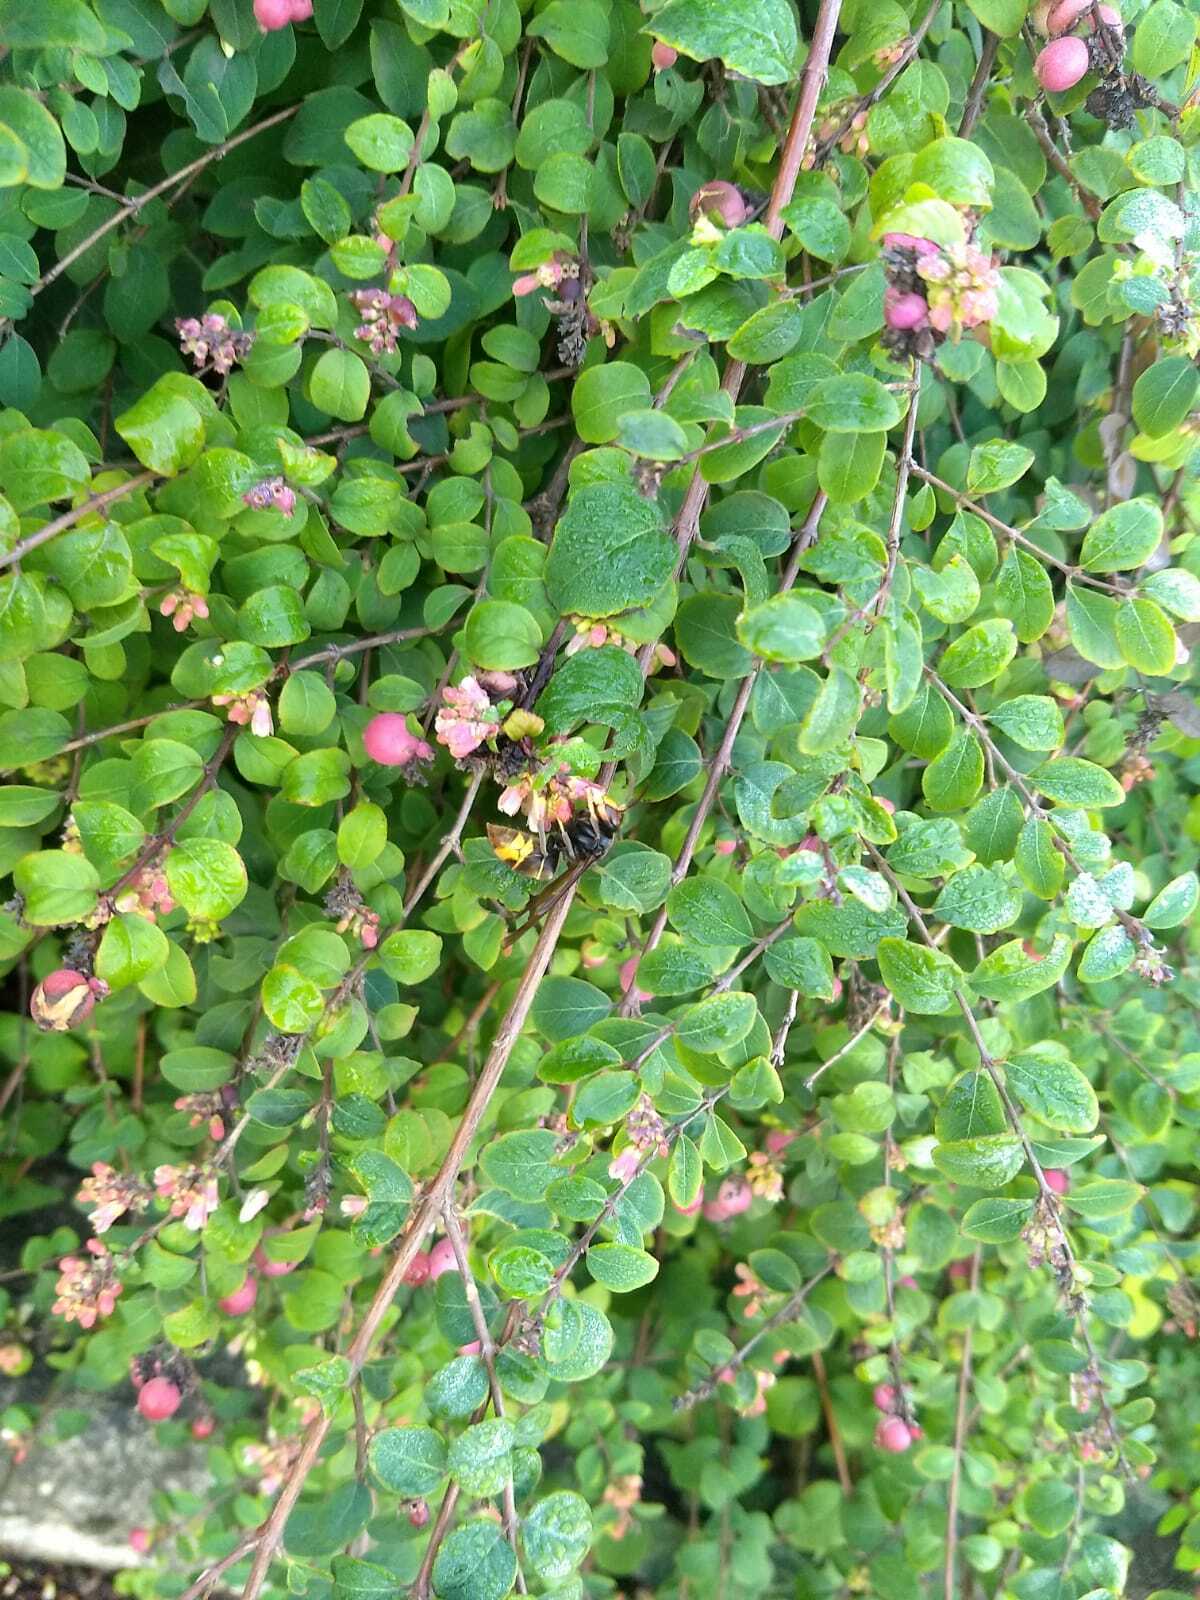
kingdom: Animalia
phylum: Arthropoda
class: Insecta
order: Hymenoptera
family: Vespidae
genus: Vespa
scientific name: Vespa velutina
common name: Asian hornet
